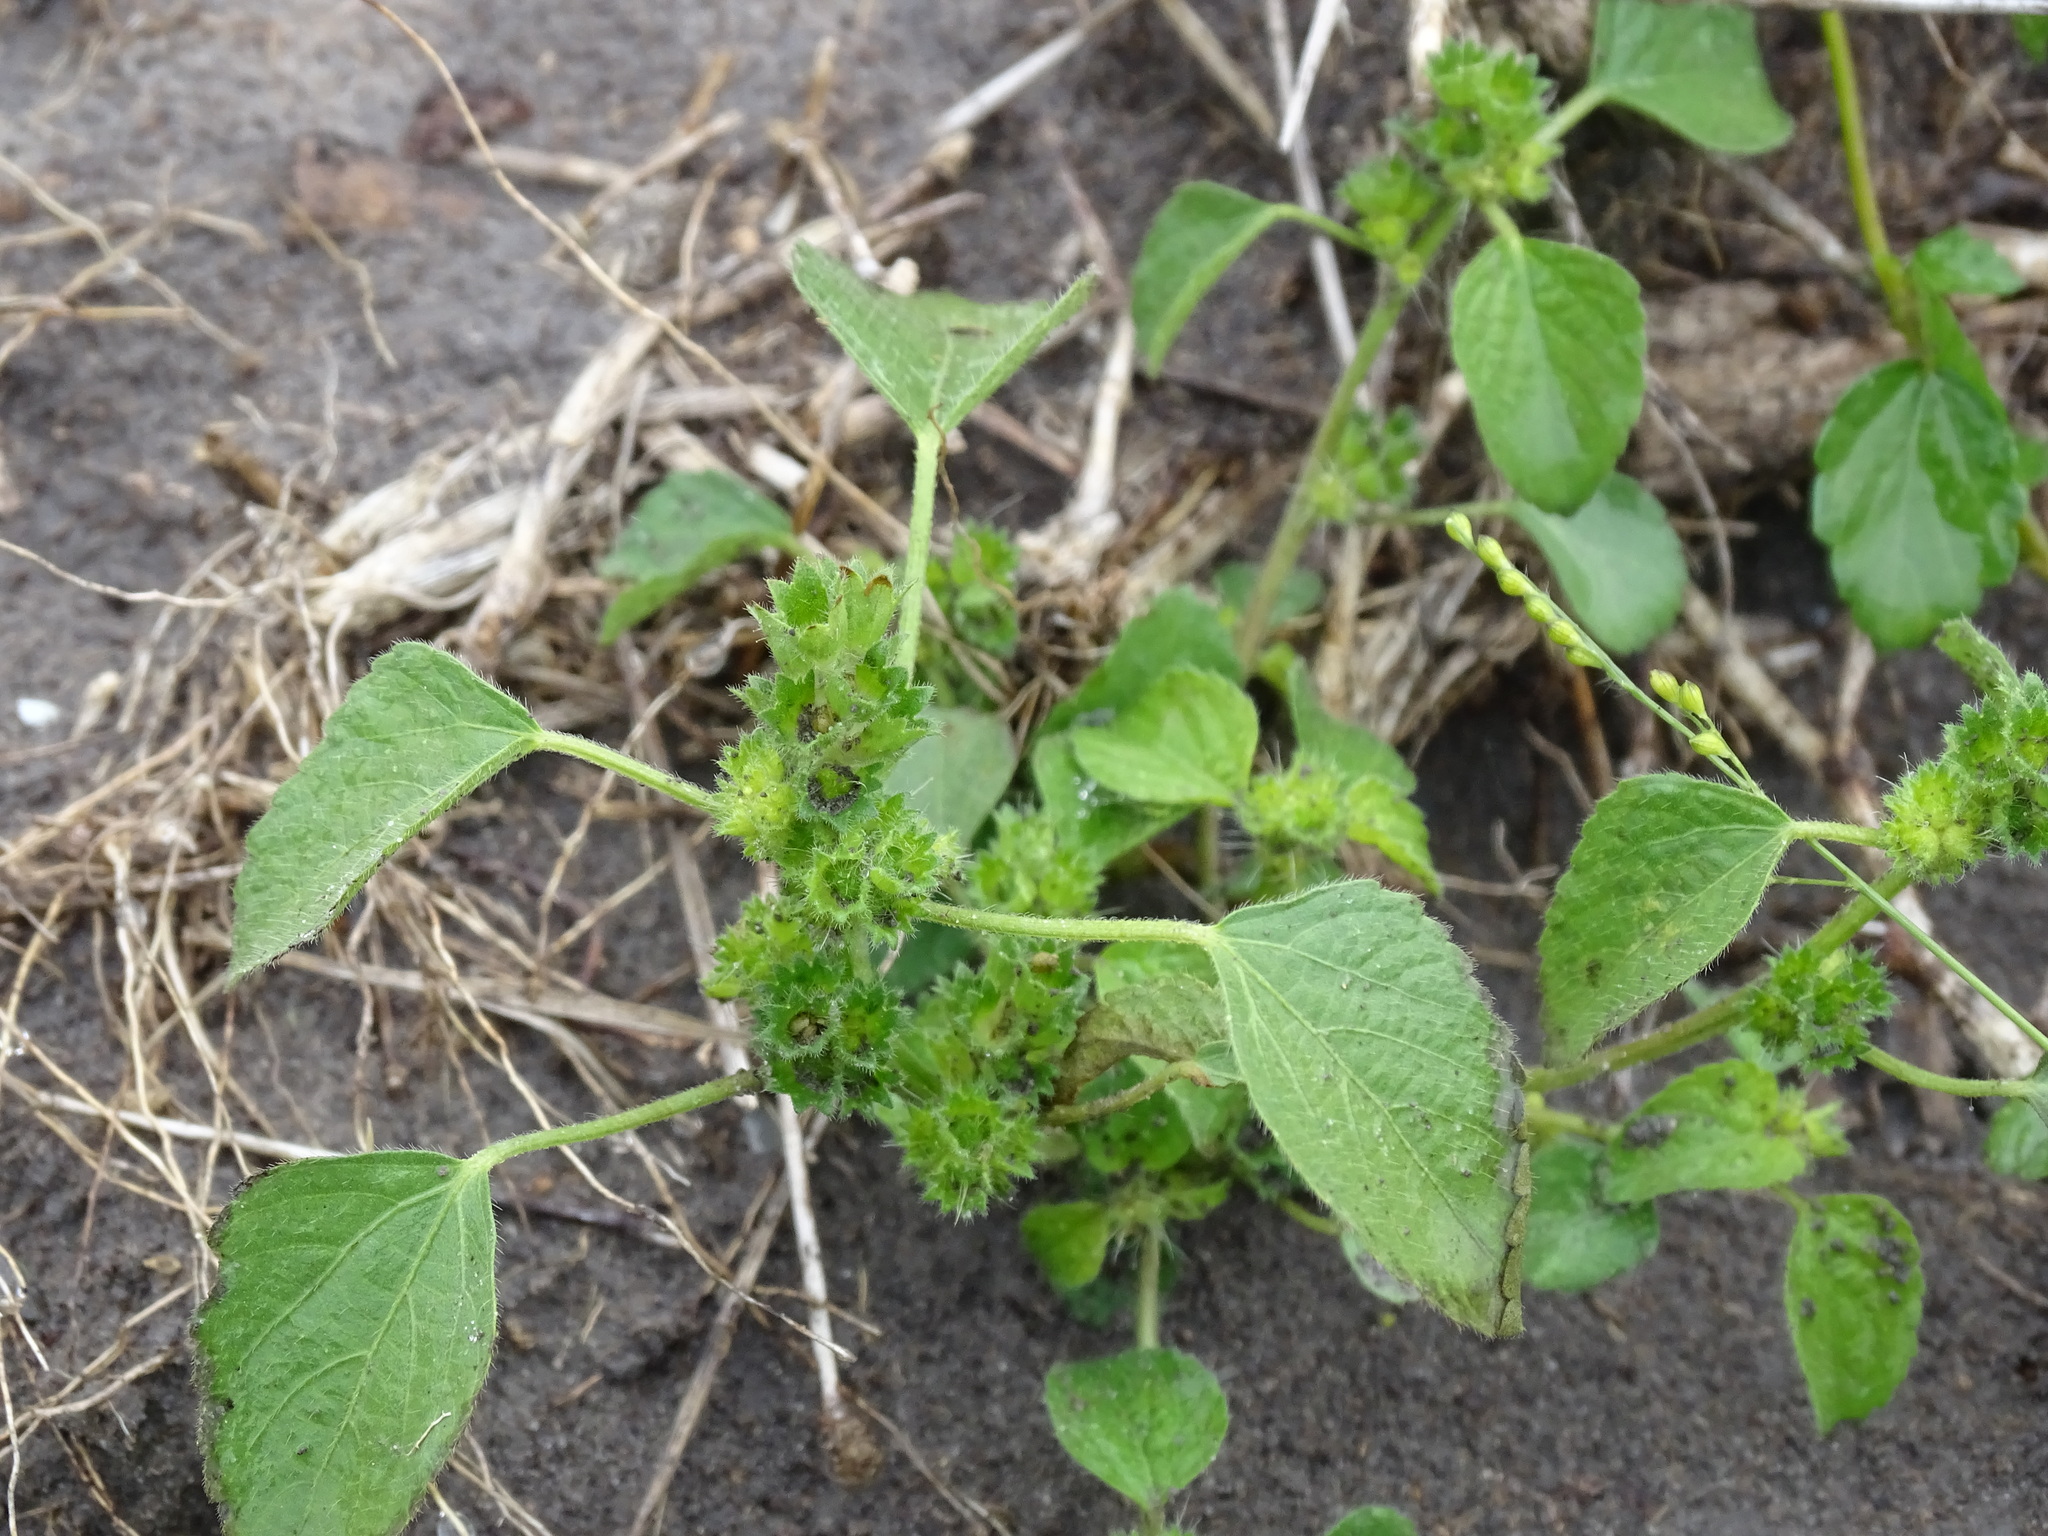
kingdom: Plantae
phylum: Tracheophyta
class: Magnoliopsida
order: Malpighiales
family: Euphorbiaceae
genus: Acalypha
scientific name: Acalypha poiretii
